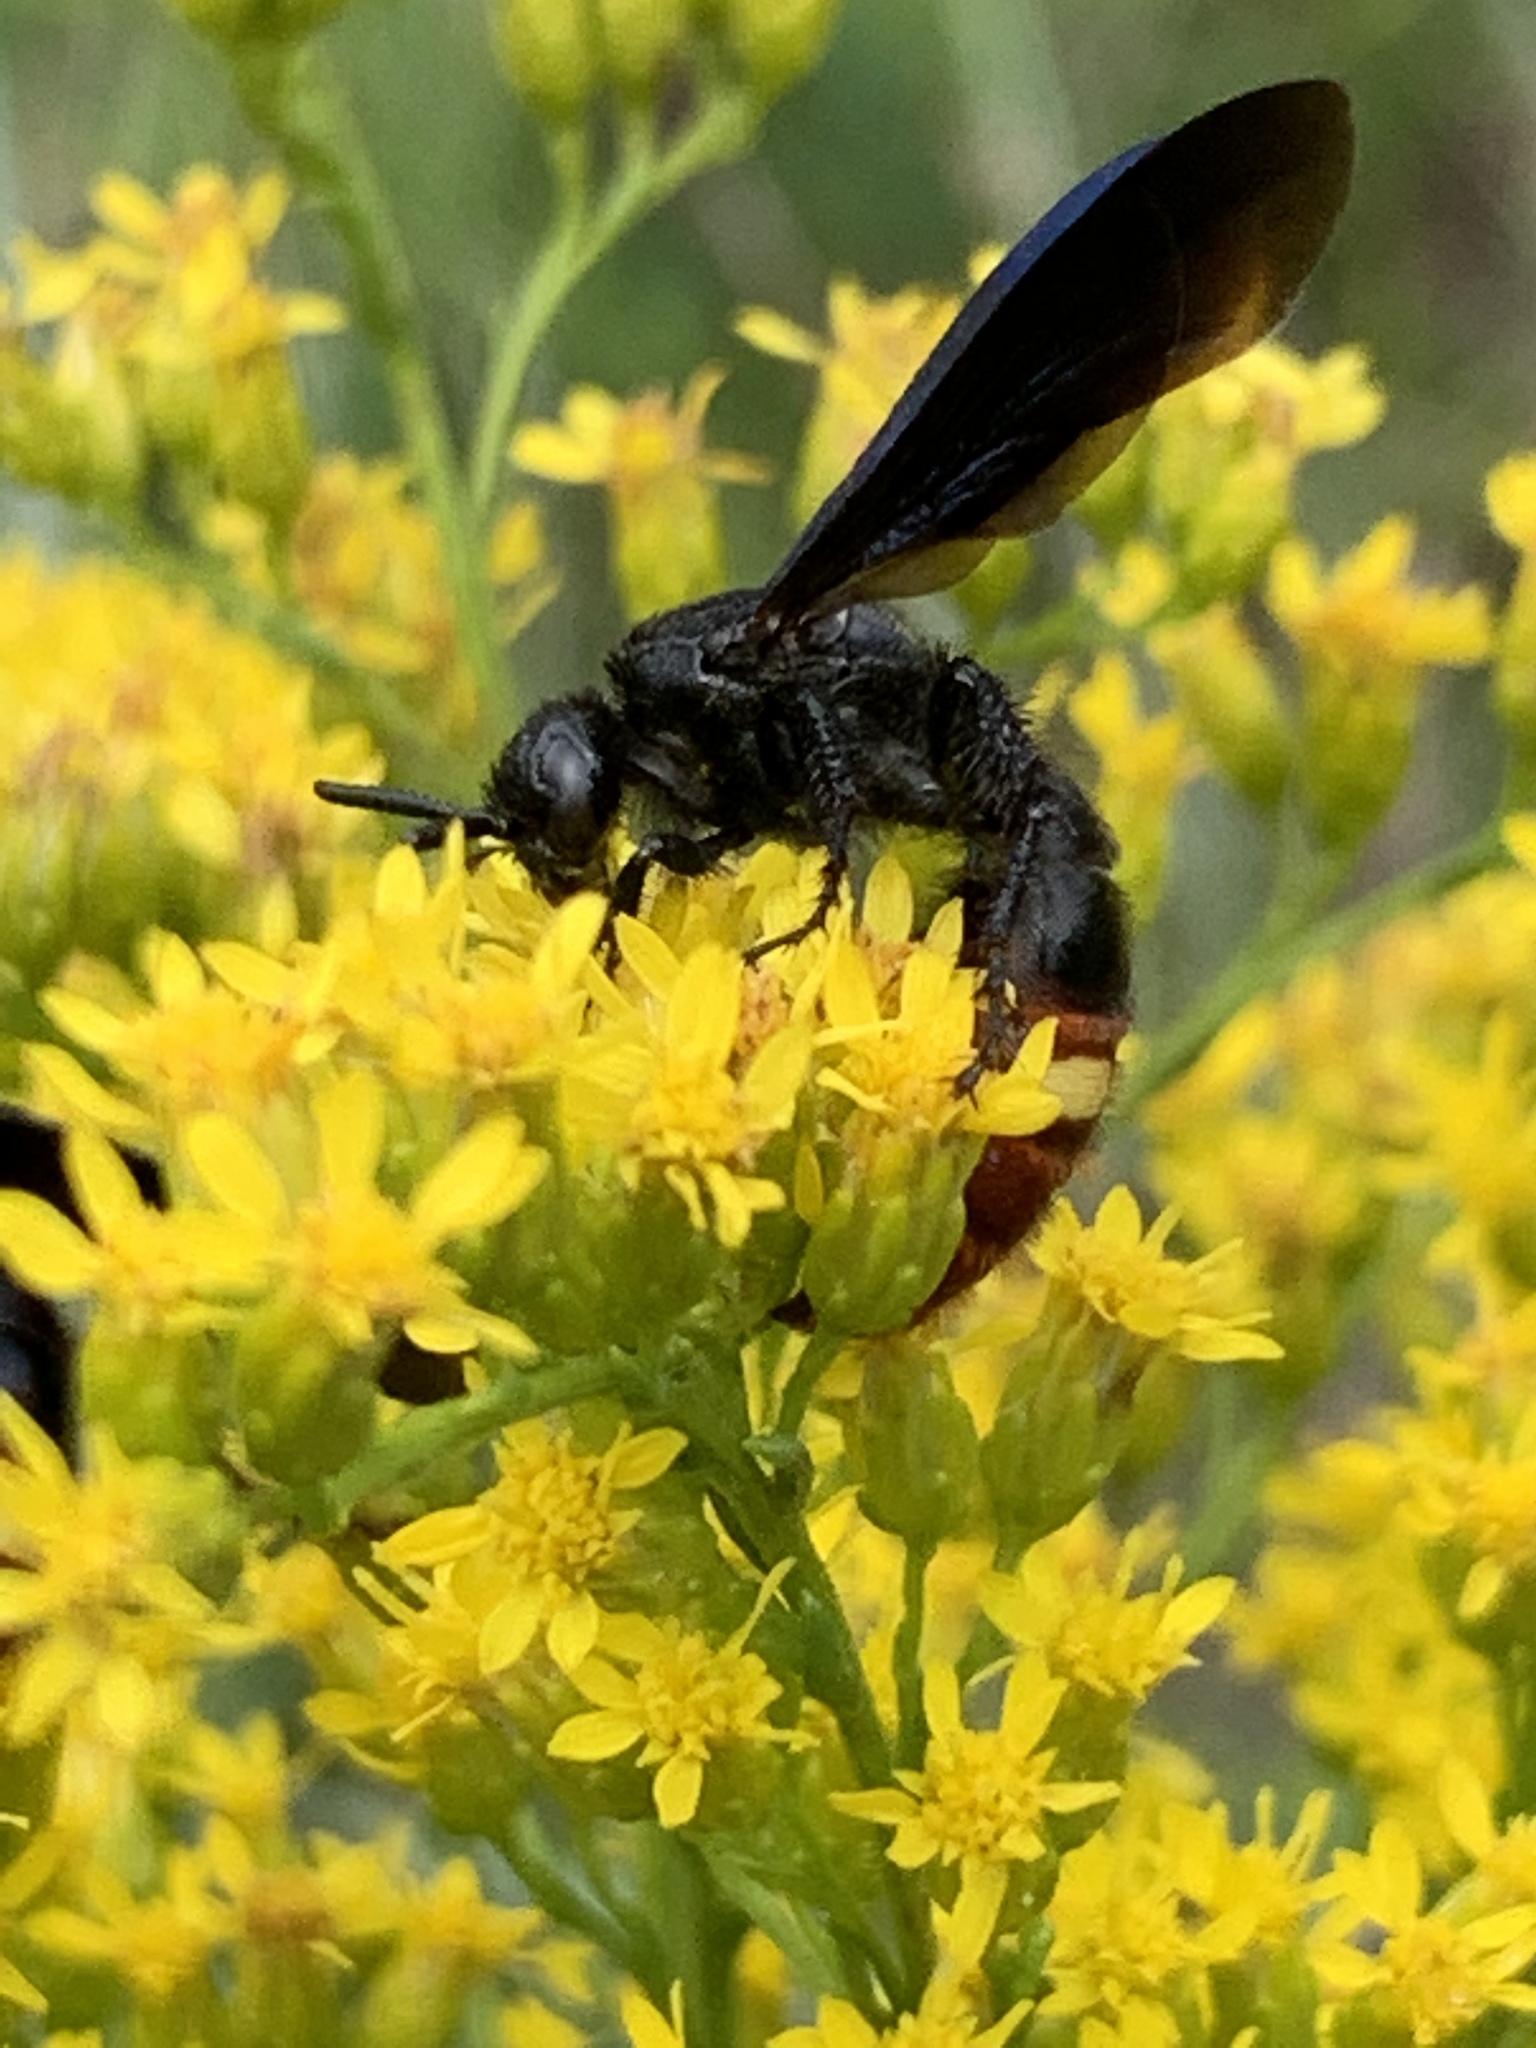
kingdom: Animalia
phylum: Arthropoda
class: Insecta
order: Hymenoptera
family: Scoliidae
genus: Scolia
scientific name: Scolia dubia
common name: Blue-winged scoliid wasp
